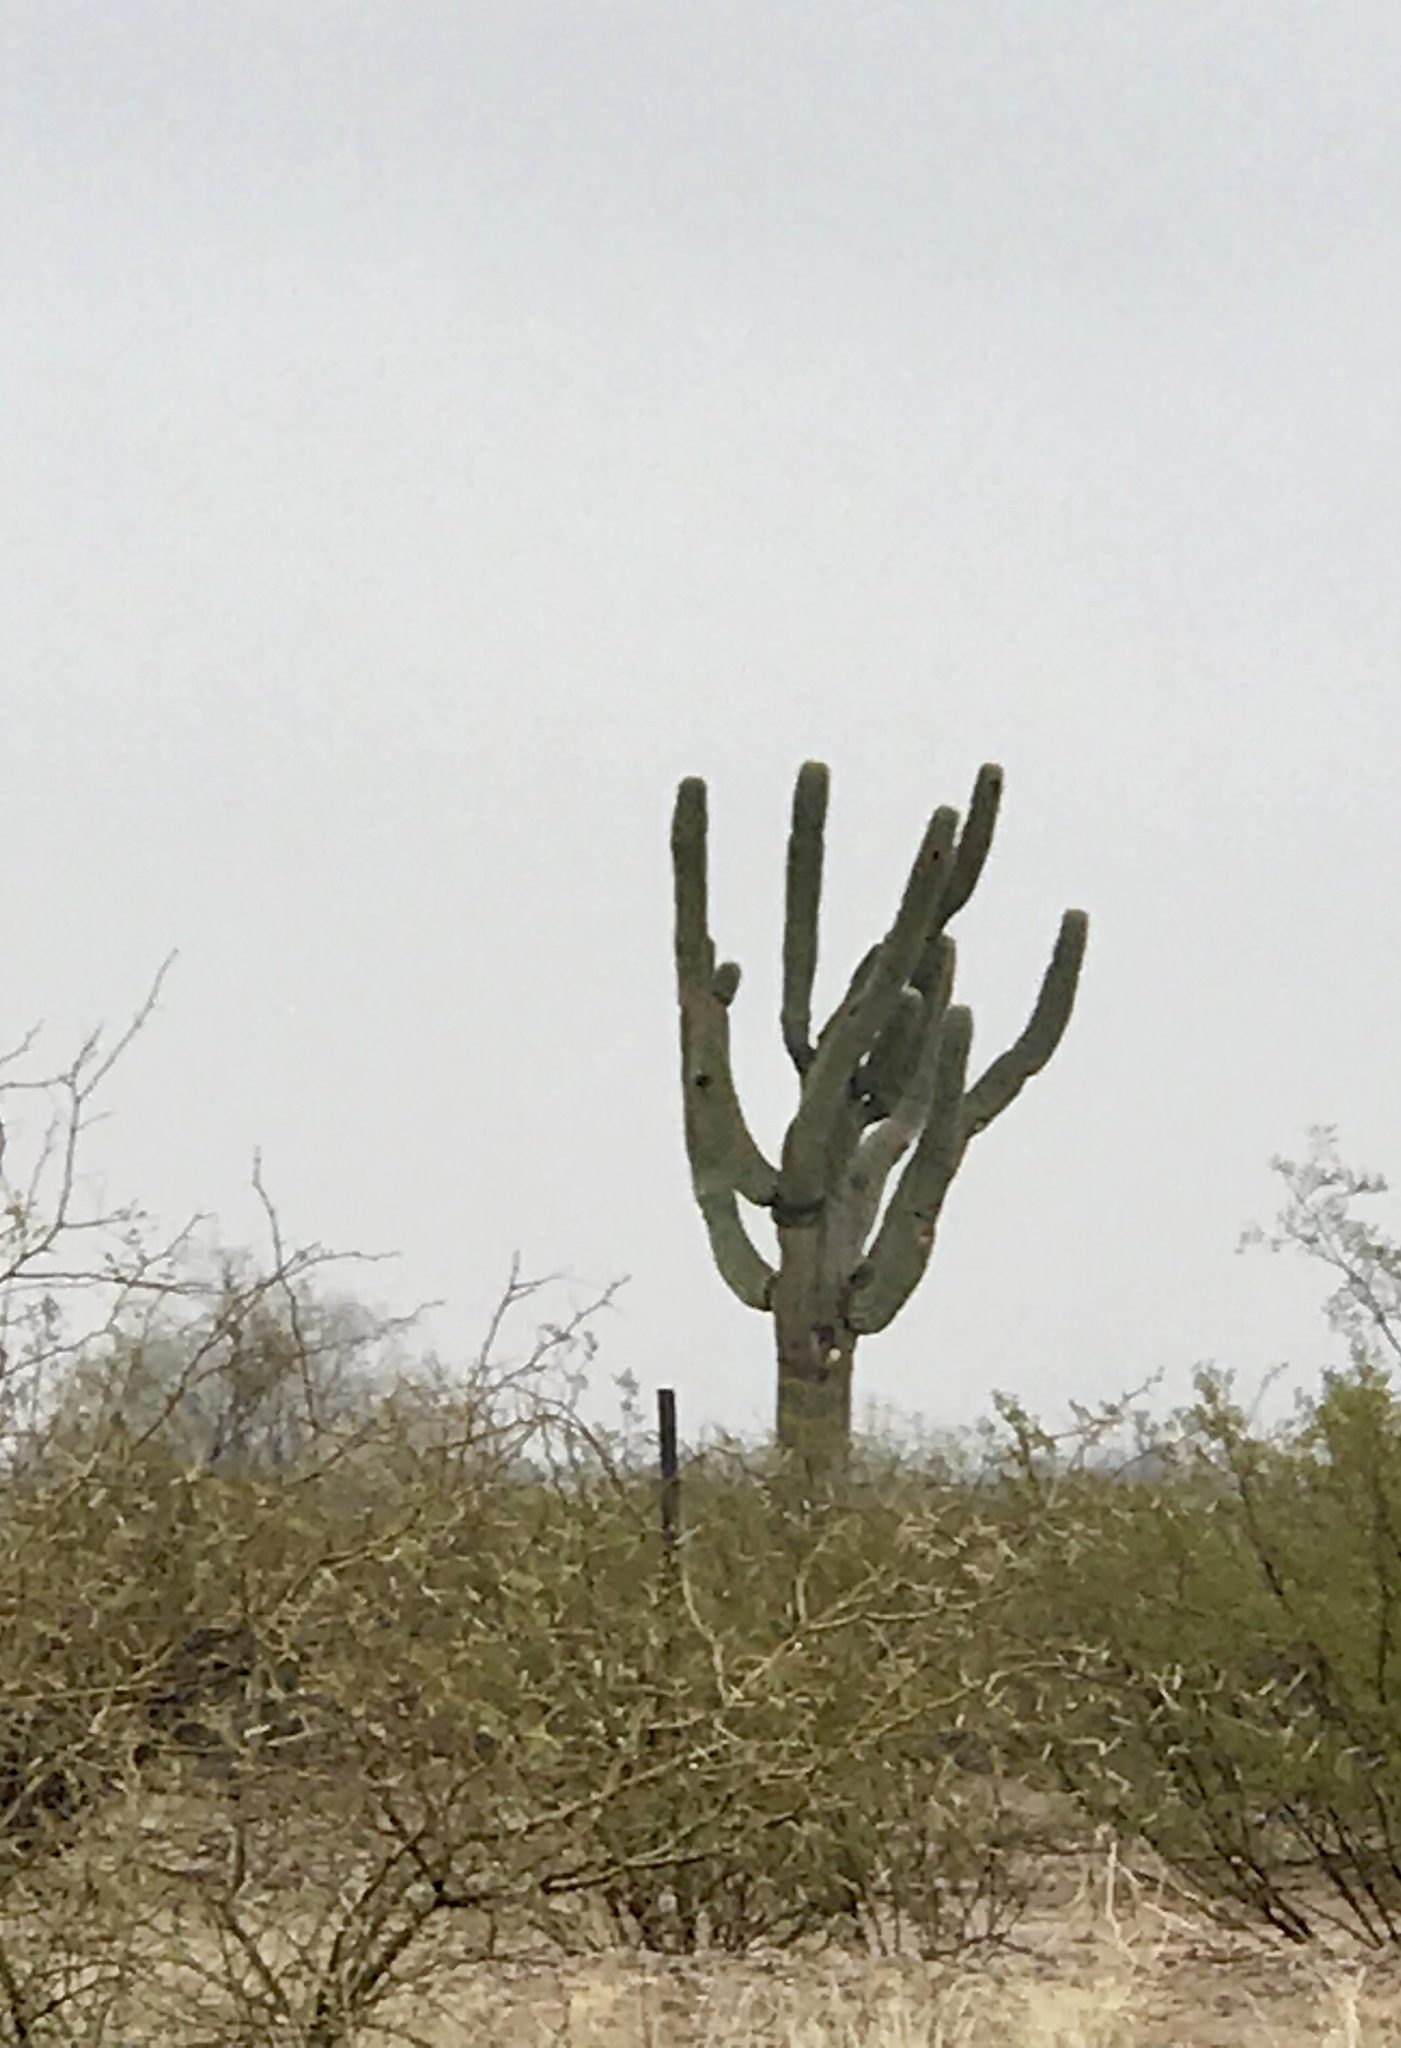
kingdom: Plantae
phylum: Tracheophyta
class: Magnoliopsida
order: Caryophyllales
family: Cactaceae
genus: Carnegiea
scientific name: Carnegiea gigantea
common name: Saguaro
